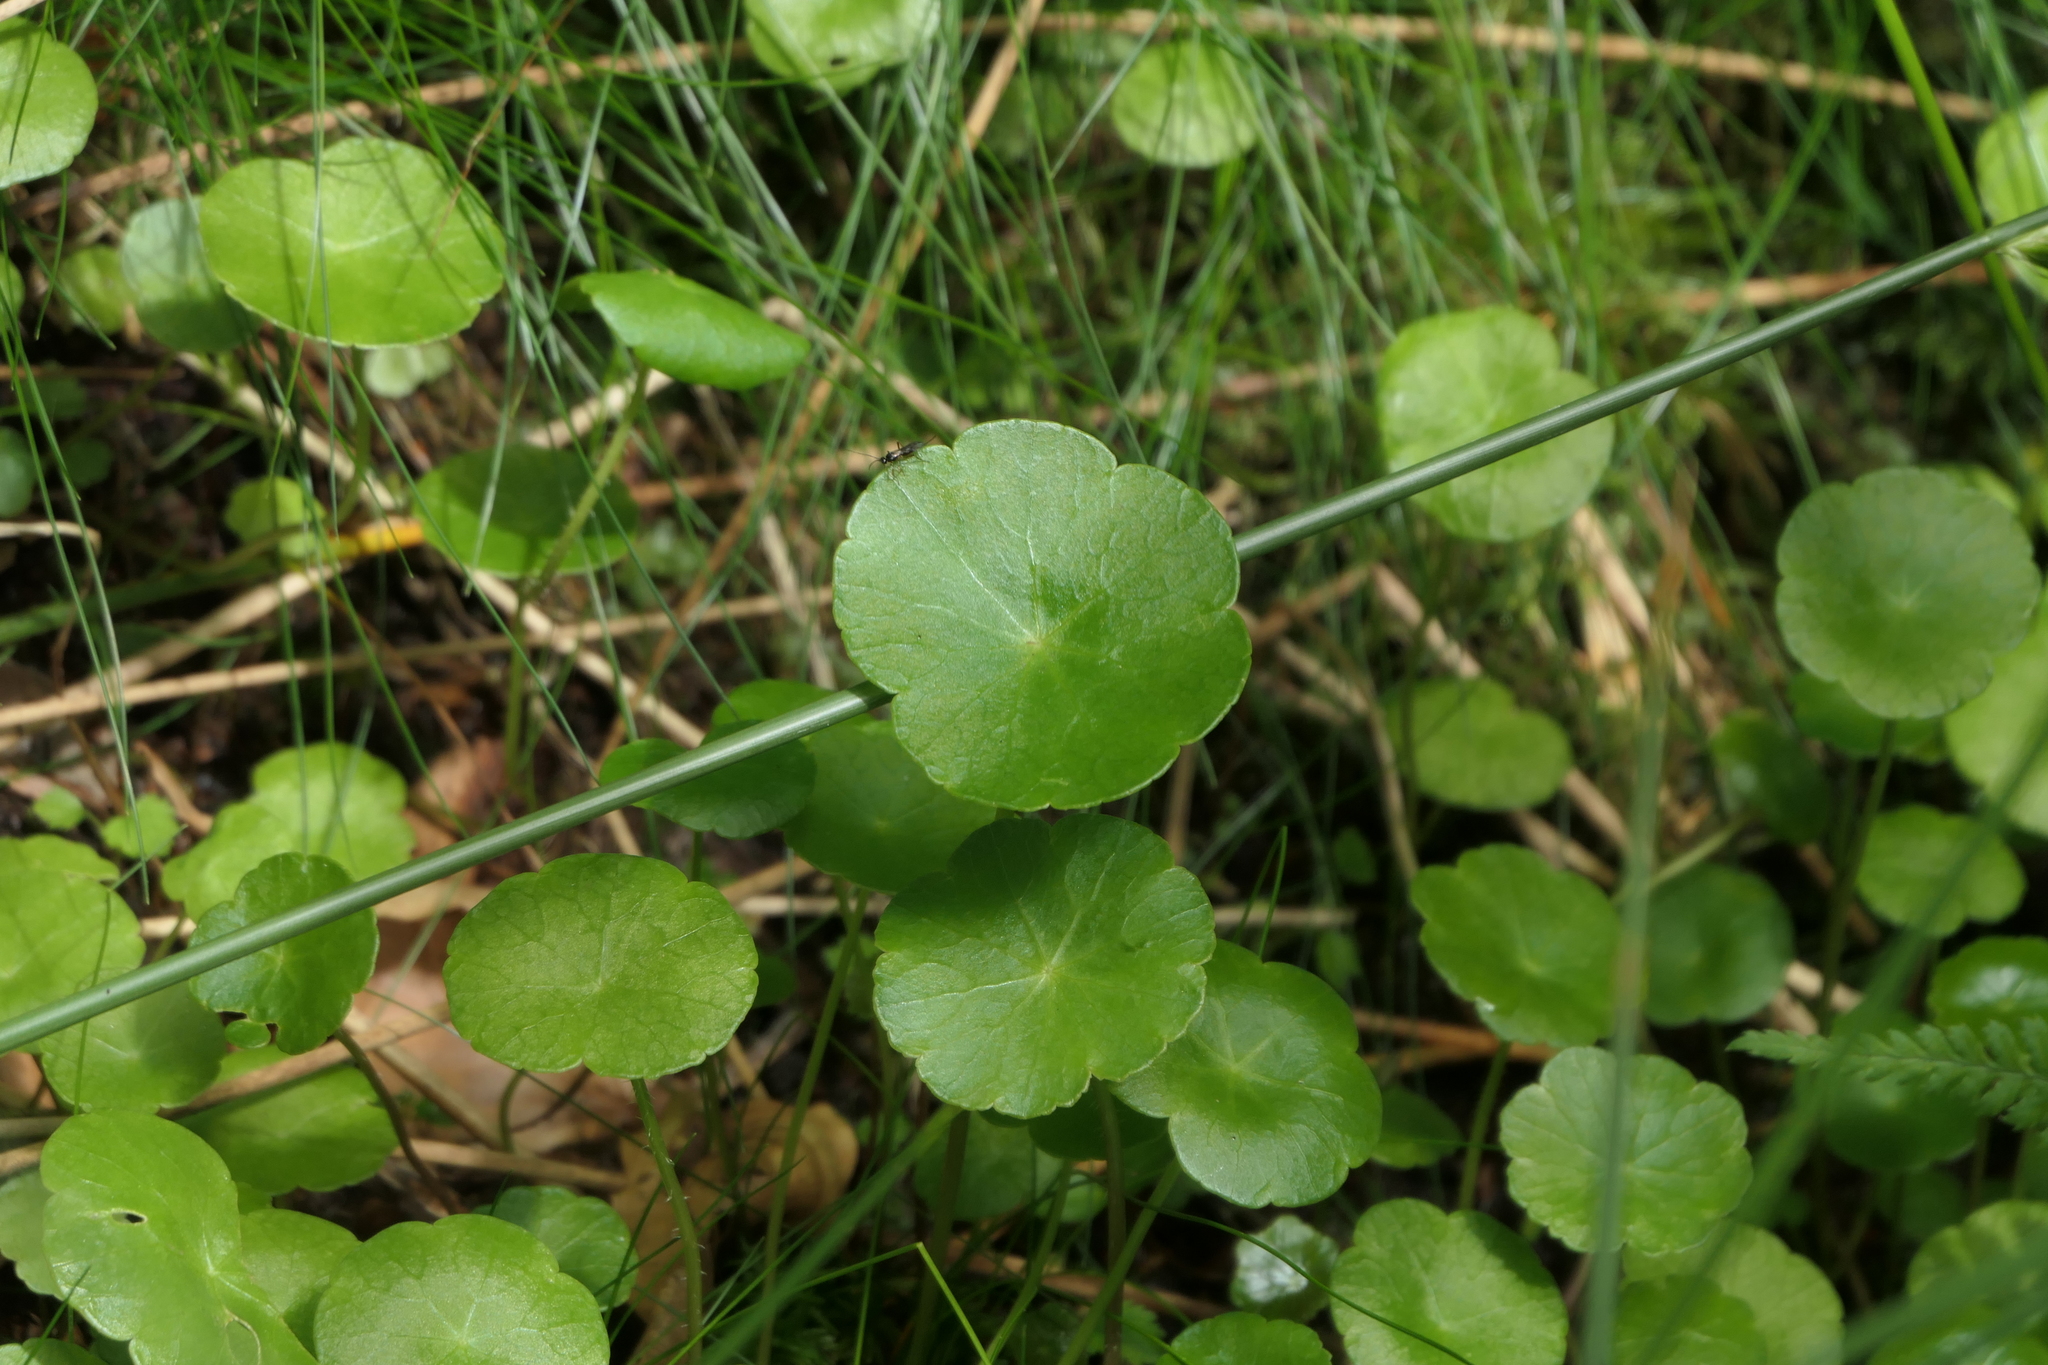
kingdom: Plantae
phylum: Tracheophyta
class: Magnoliopsida
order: Apiales
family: Araliaceae
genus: Hydrocotyle
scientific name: Hydrocotyle vulgaris
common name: Marsh pennywort
